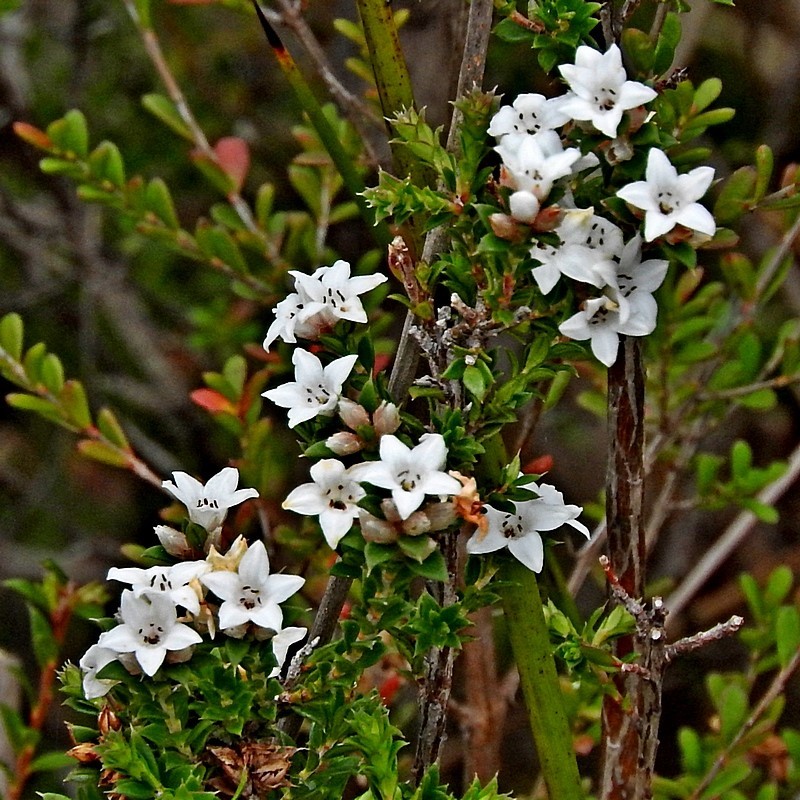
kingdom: Plantae
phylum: Tracheophyta
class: Magnoliopsida
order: Ericales
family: Ericaceae
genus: Epacris
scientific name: Epacris breviflora
